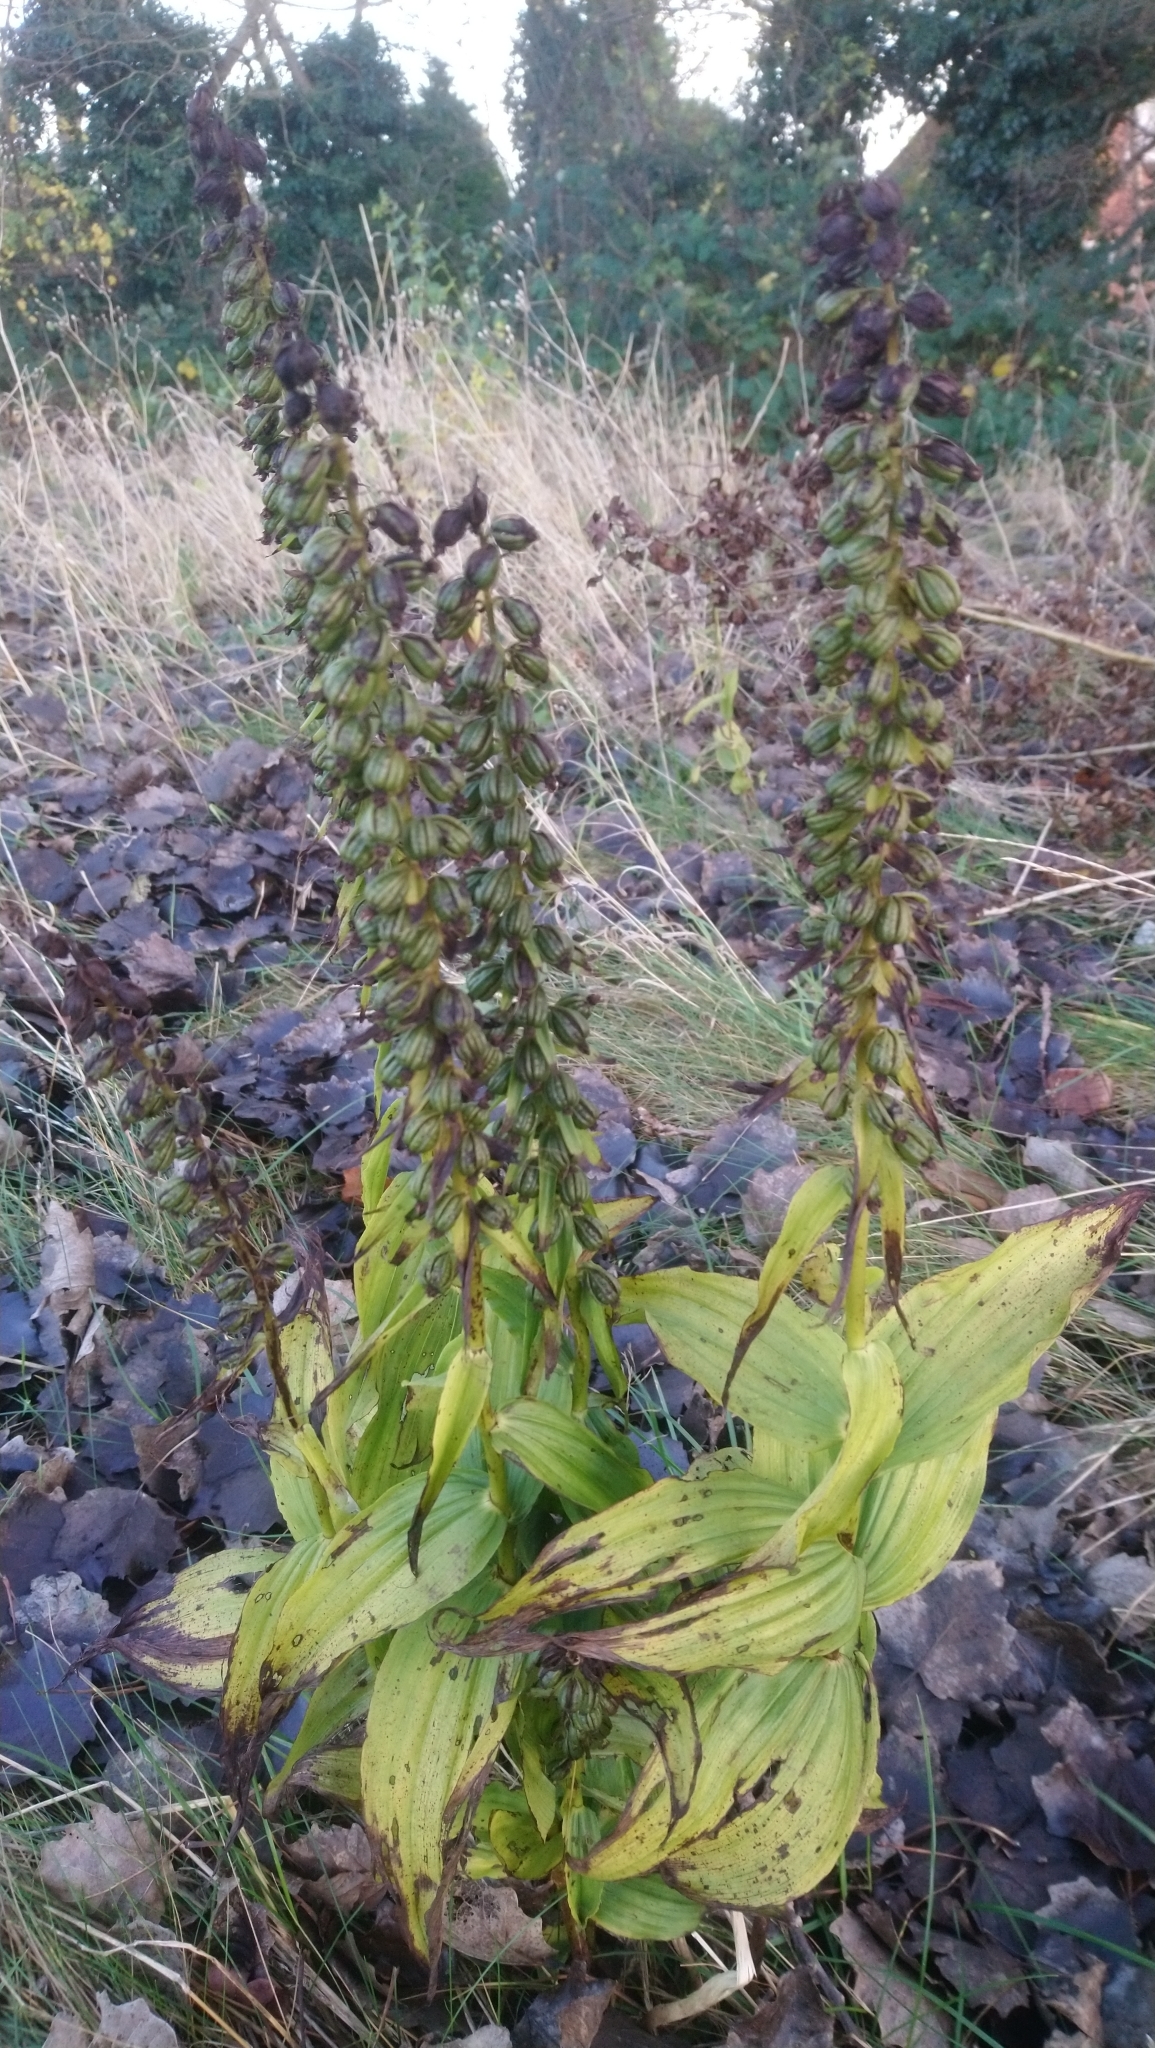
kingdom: Plantae
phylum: Tracheophyta
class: Liliopsida
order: Asparagales
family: Orchidaceae
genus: Epipactis
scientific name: Epipactis helleborine
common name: Broad-leaved helleborine
